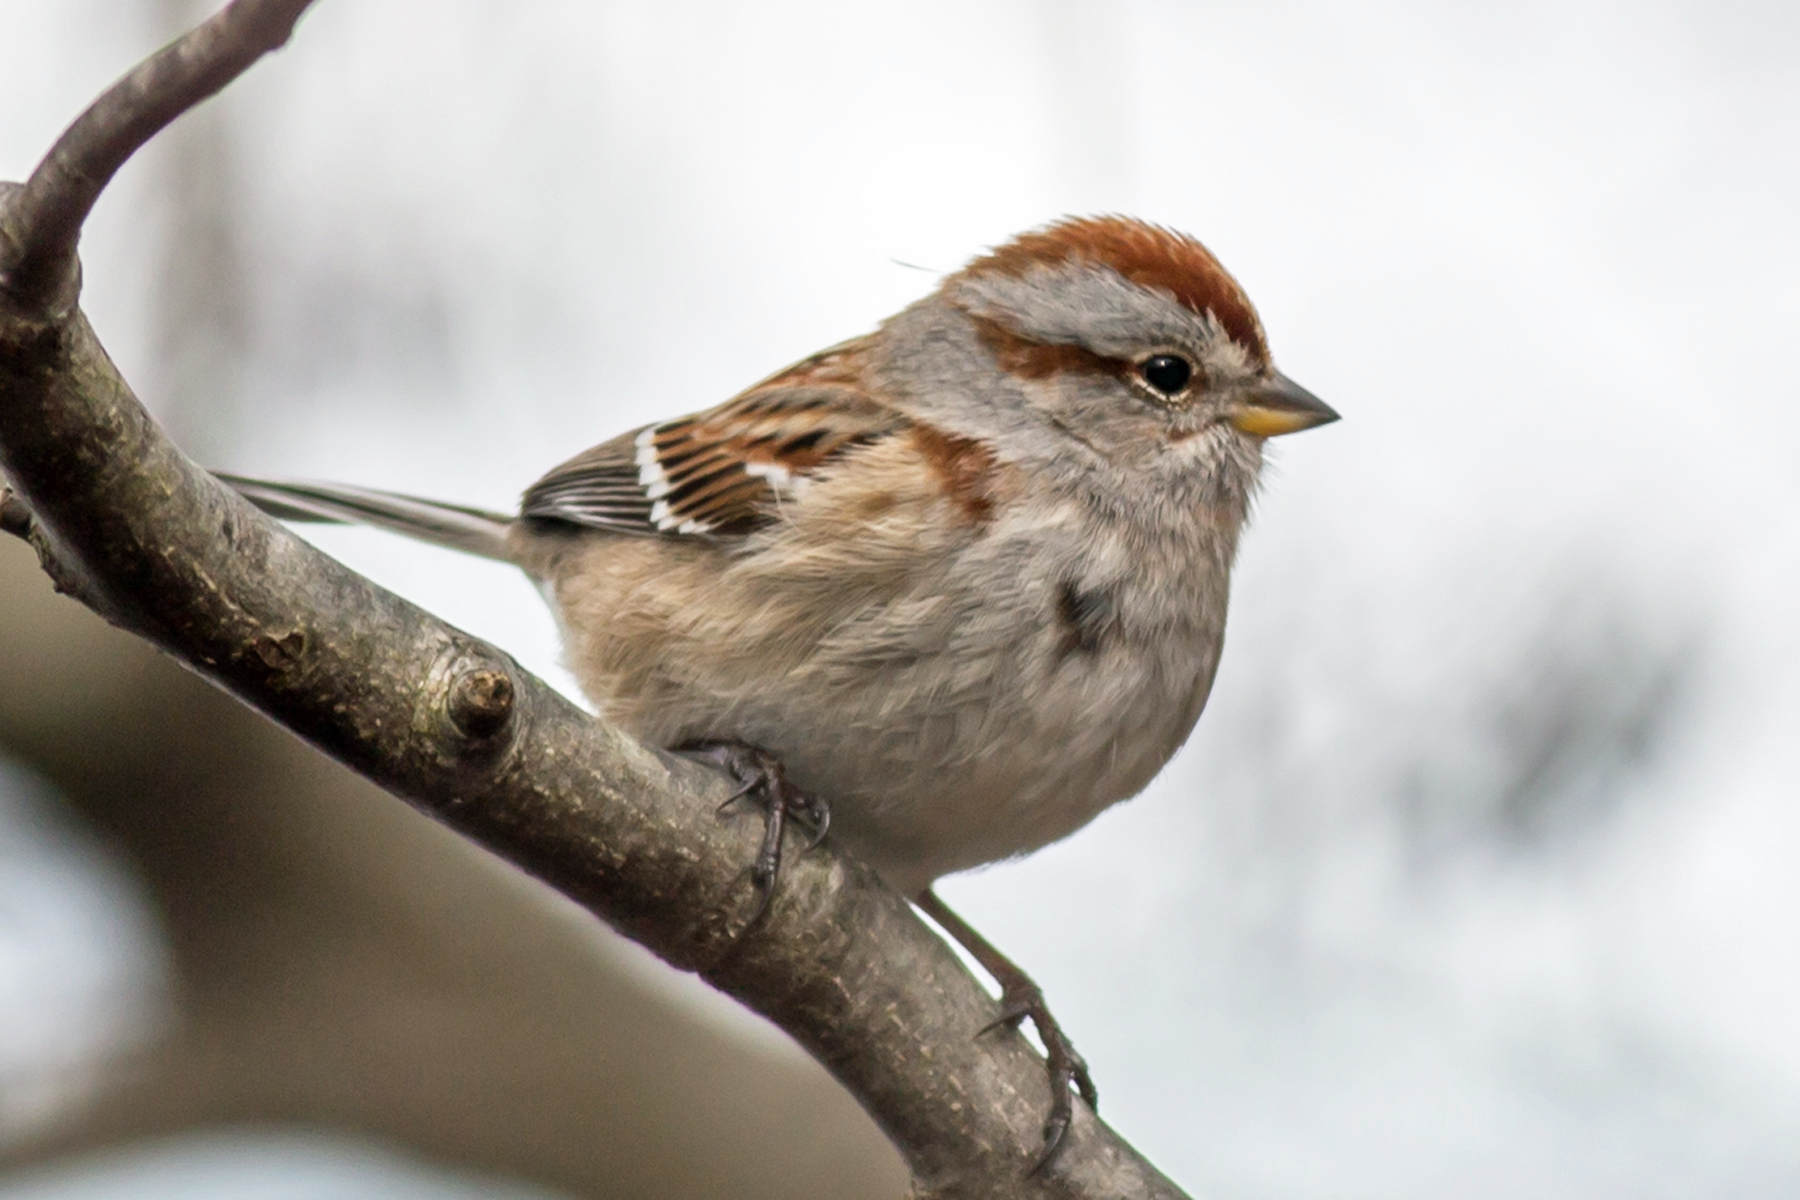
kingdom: Animalia
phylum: Chordata
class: Aves
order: Passeriformes
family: Passerellidae
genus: Spizelloides
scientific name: Spizelloides arborea
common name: American tree sparrow
